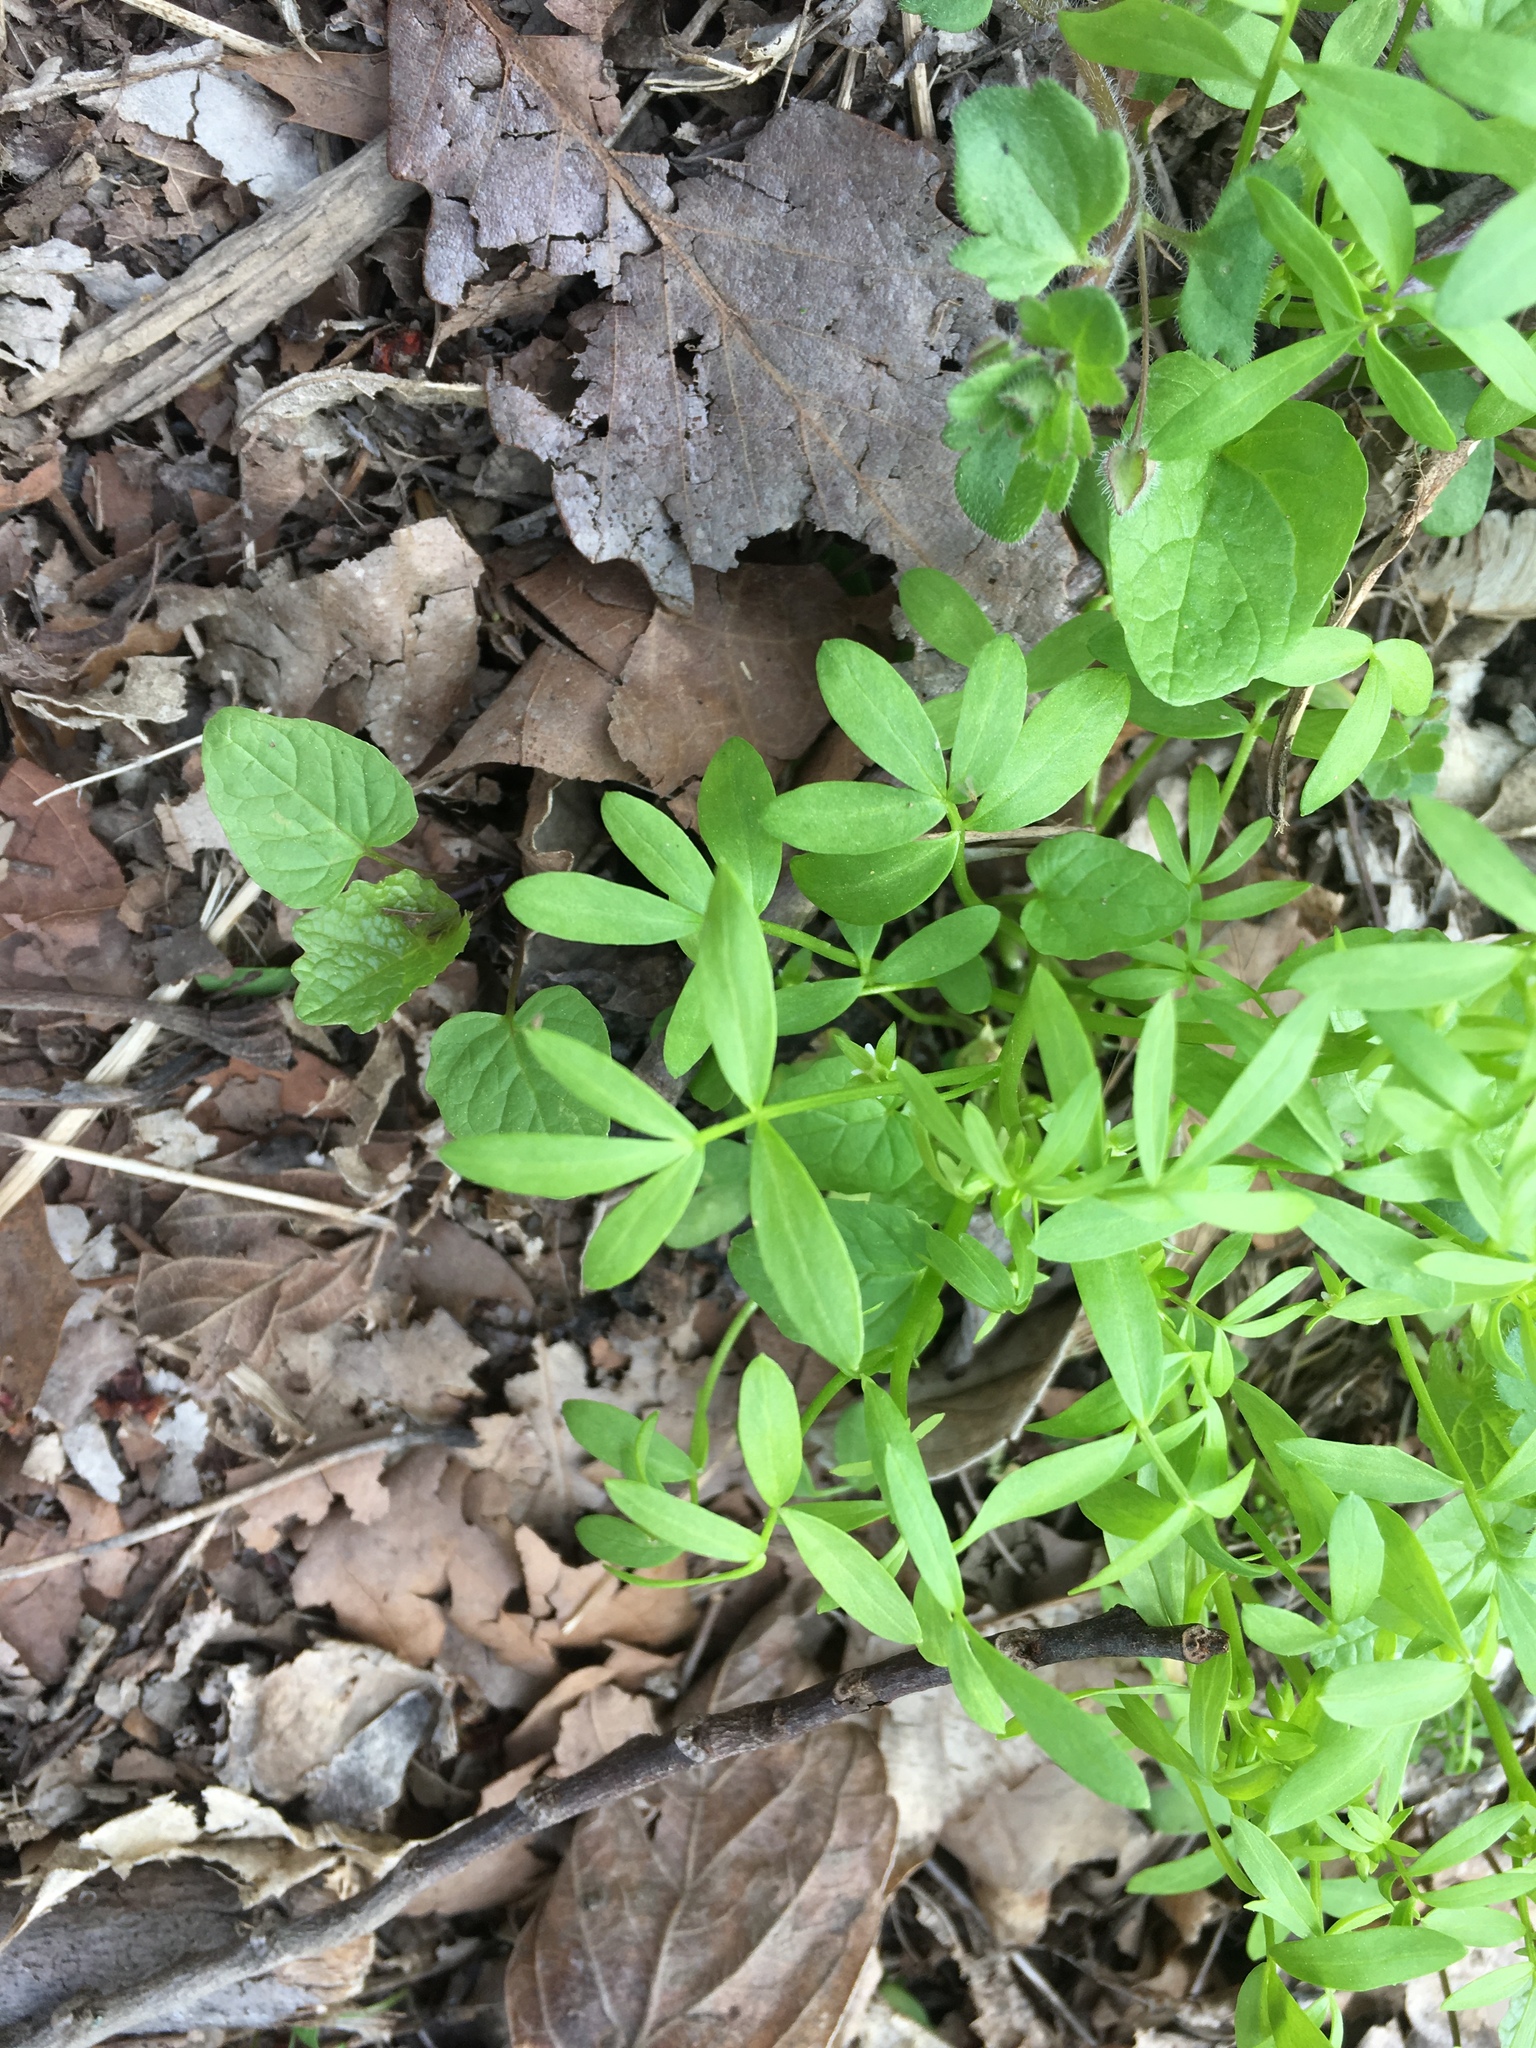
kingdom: Plantae
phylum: Tracheophyta
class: Magnoliopsida
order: Brassicales
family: Limnanthaceae
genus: Floerkea
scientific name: Floerkea proserpinacoides
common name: False mermaid
